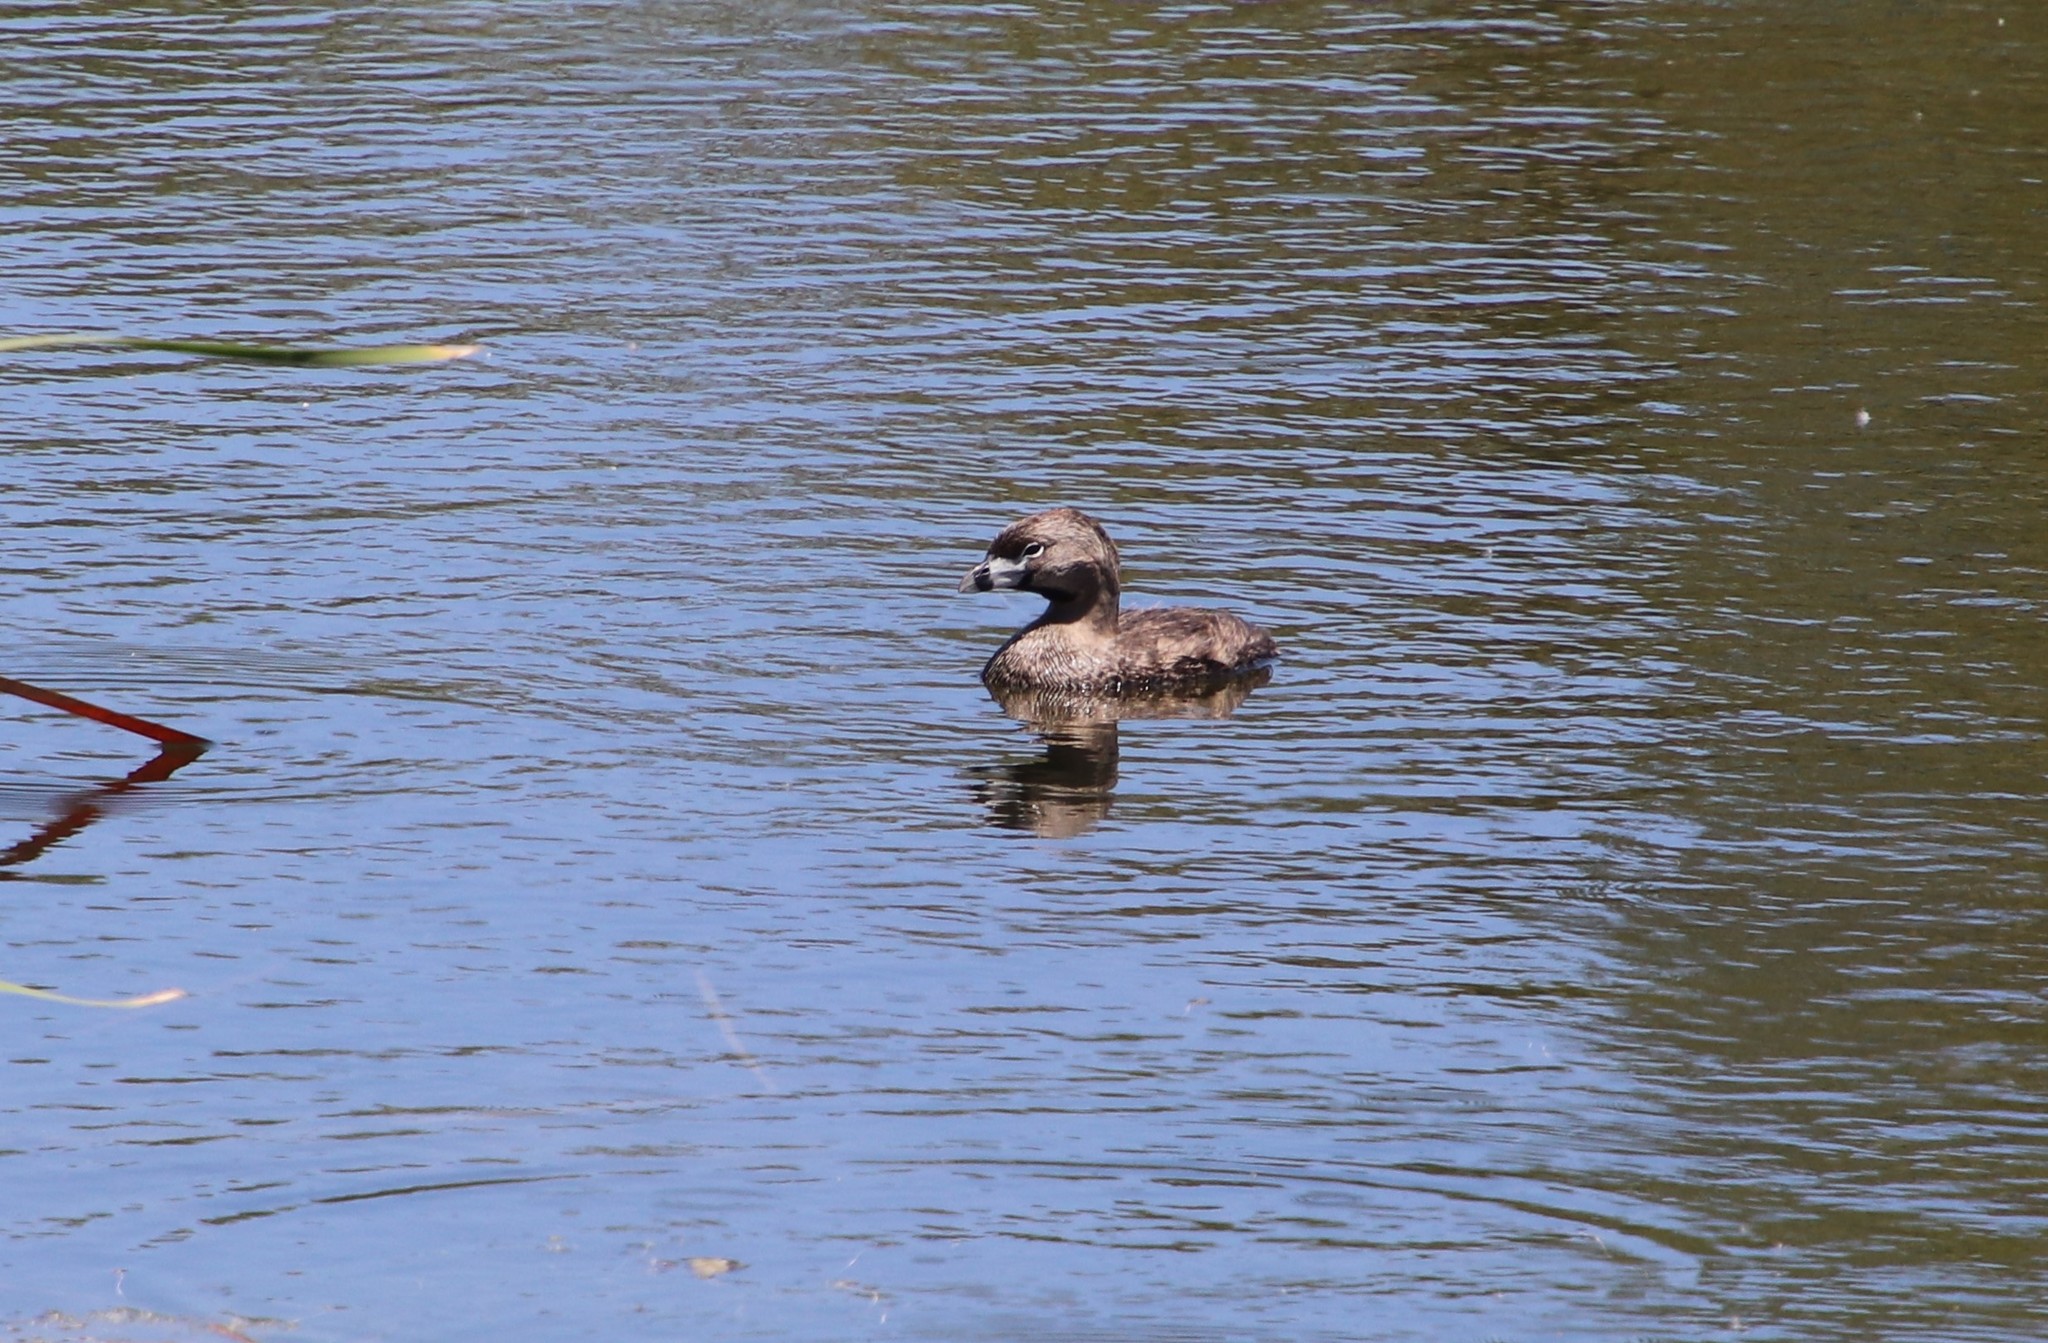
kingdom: Animalia
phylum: Chordata
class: Aves
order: Podicipediformes
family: Podicipedidae
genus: Podilymbus
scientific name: Podilymbus podiceps
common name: Pied-billed grebe
